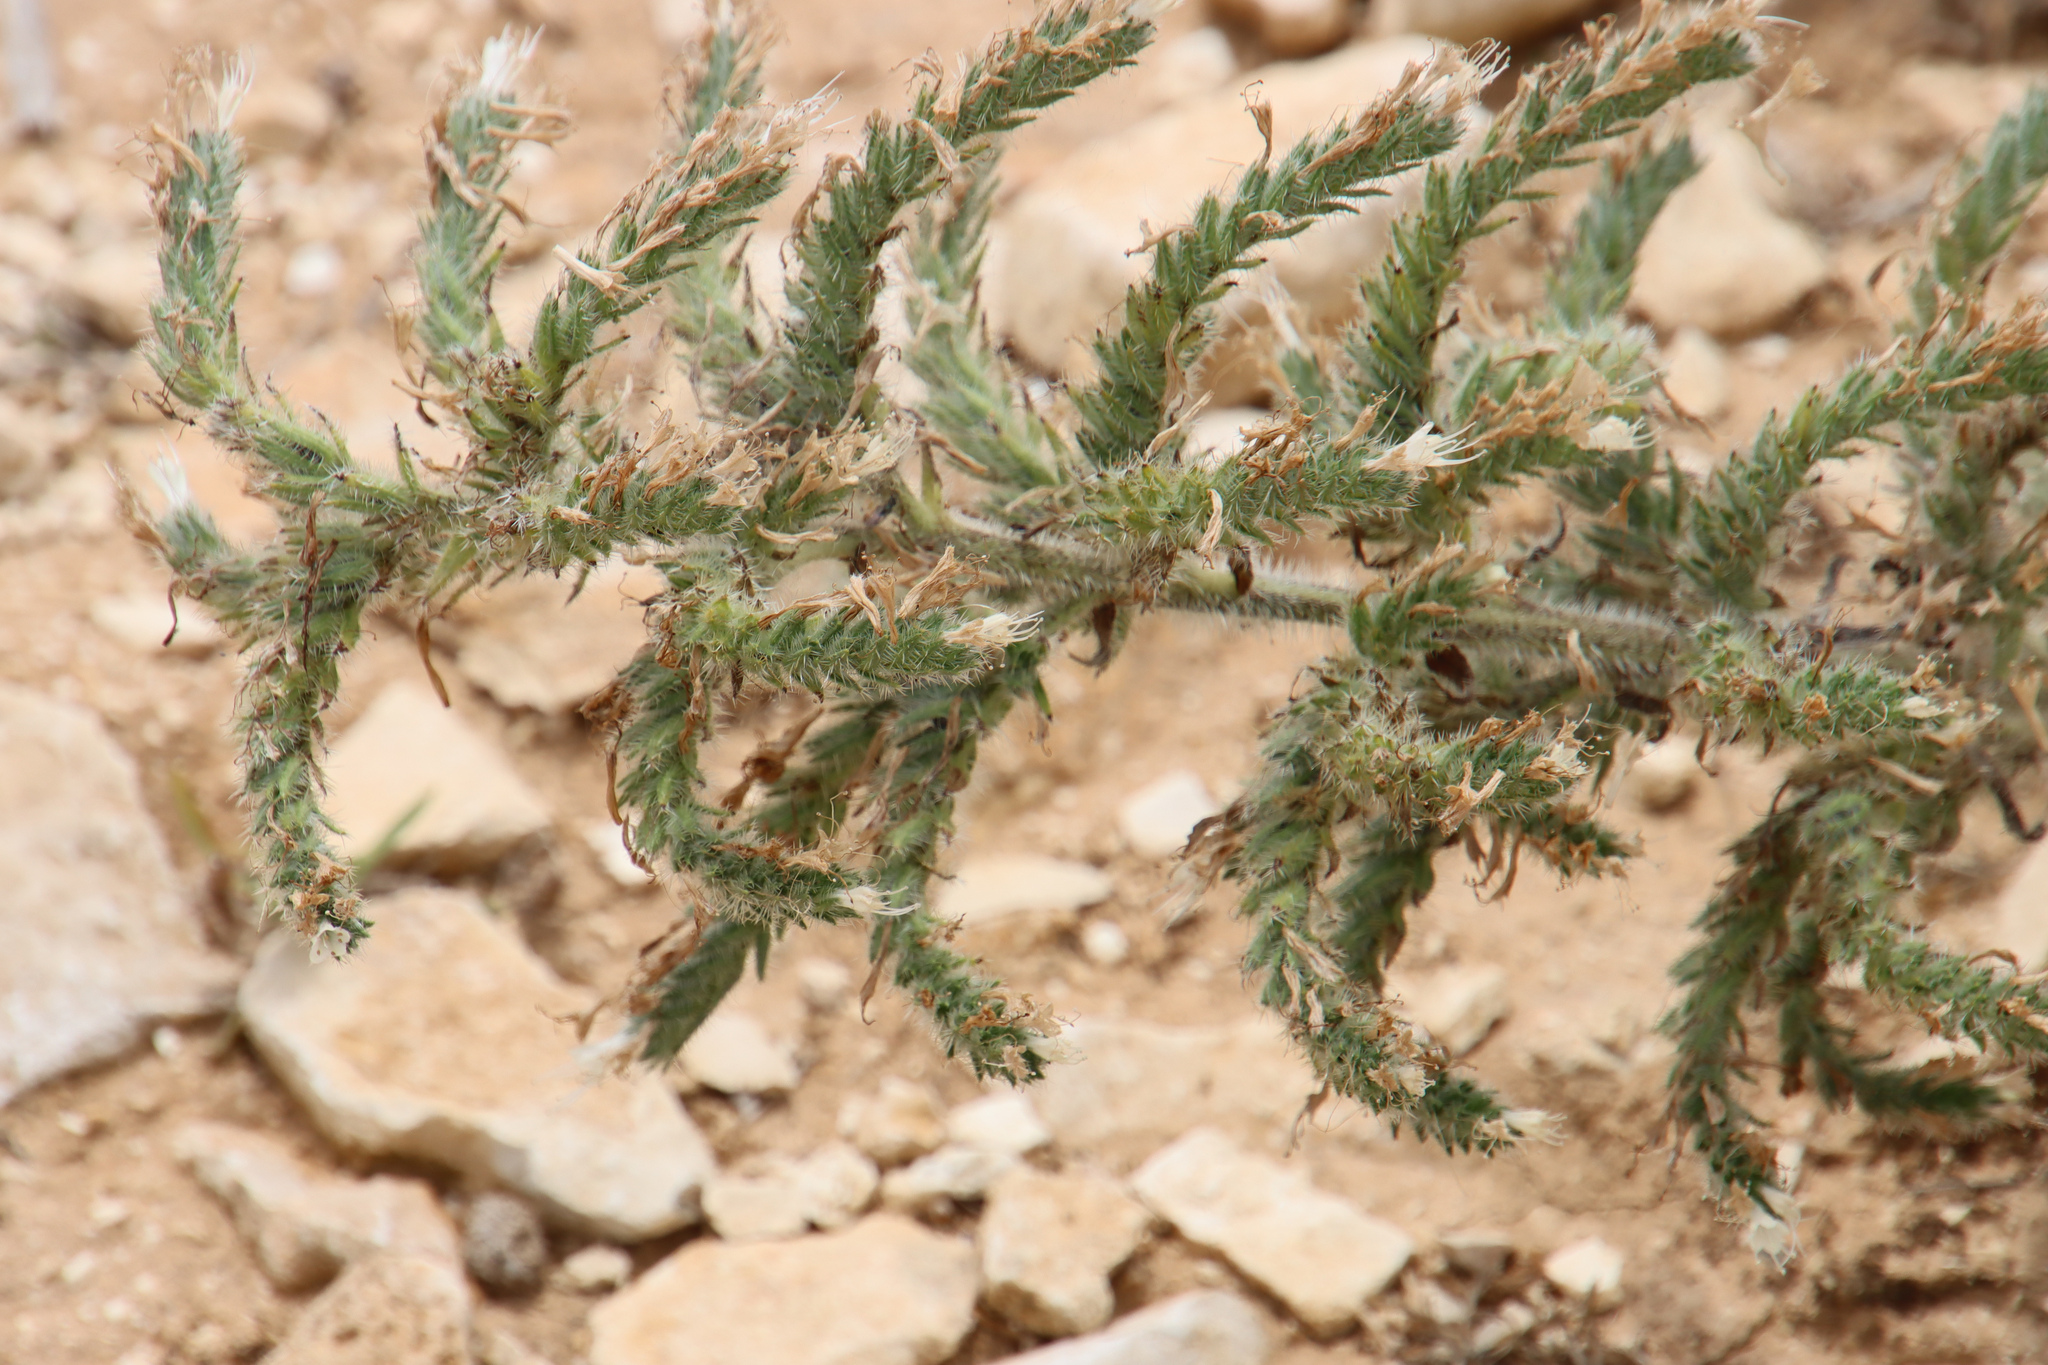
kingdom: Plantae
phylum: Tracheophyta
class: Magnoliopsida
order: Boraginales
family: Boraginaceae
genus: Echium
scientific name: Echium italicum
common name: Italian viper's bugloss
